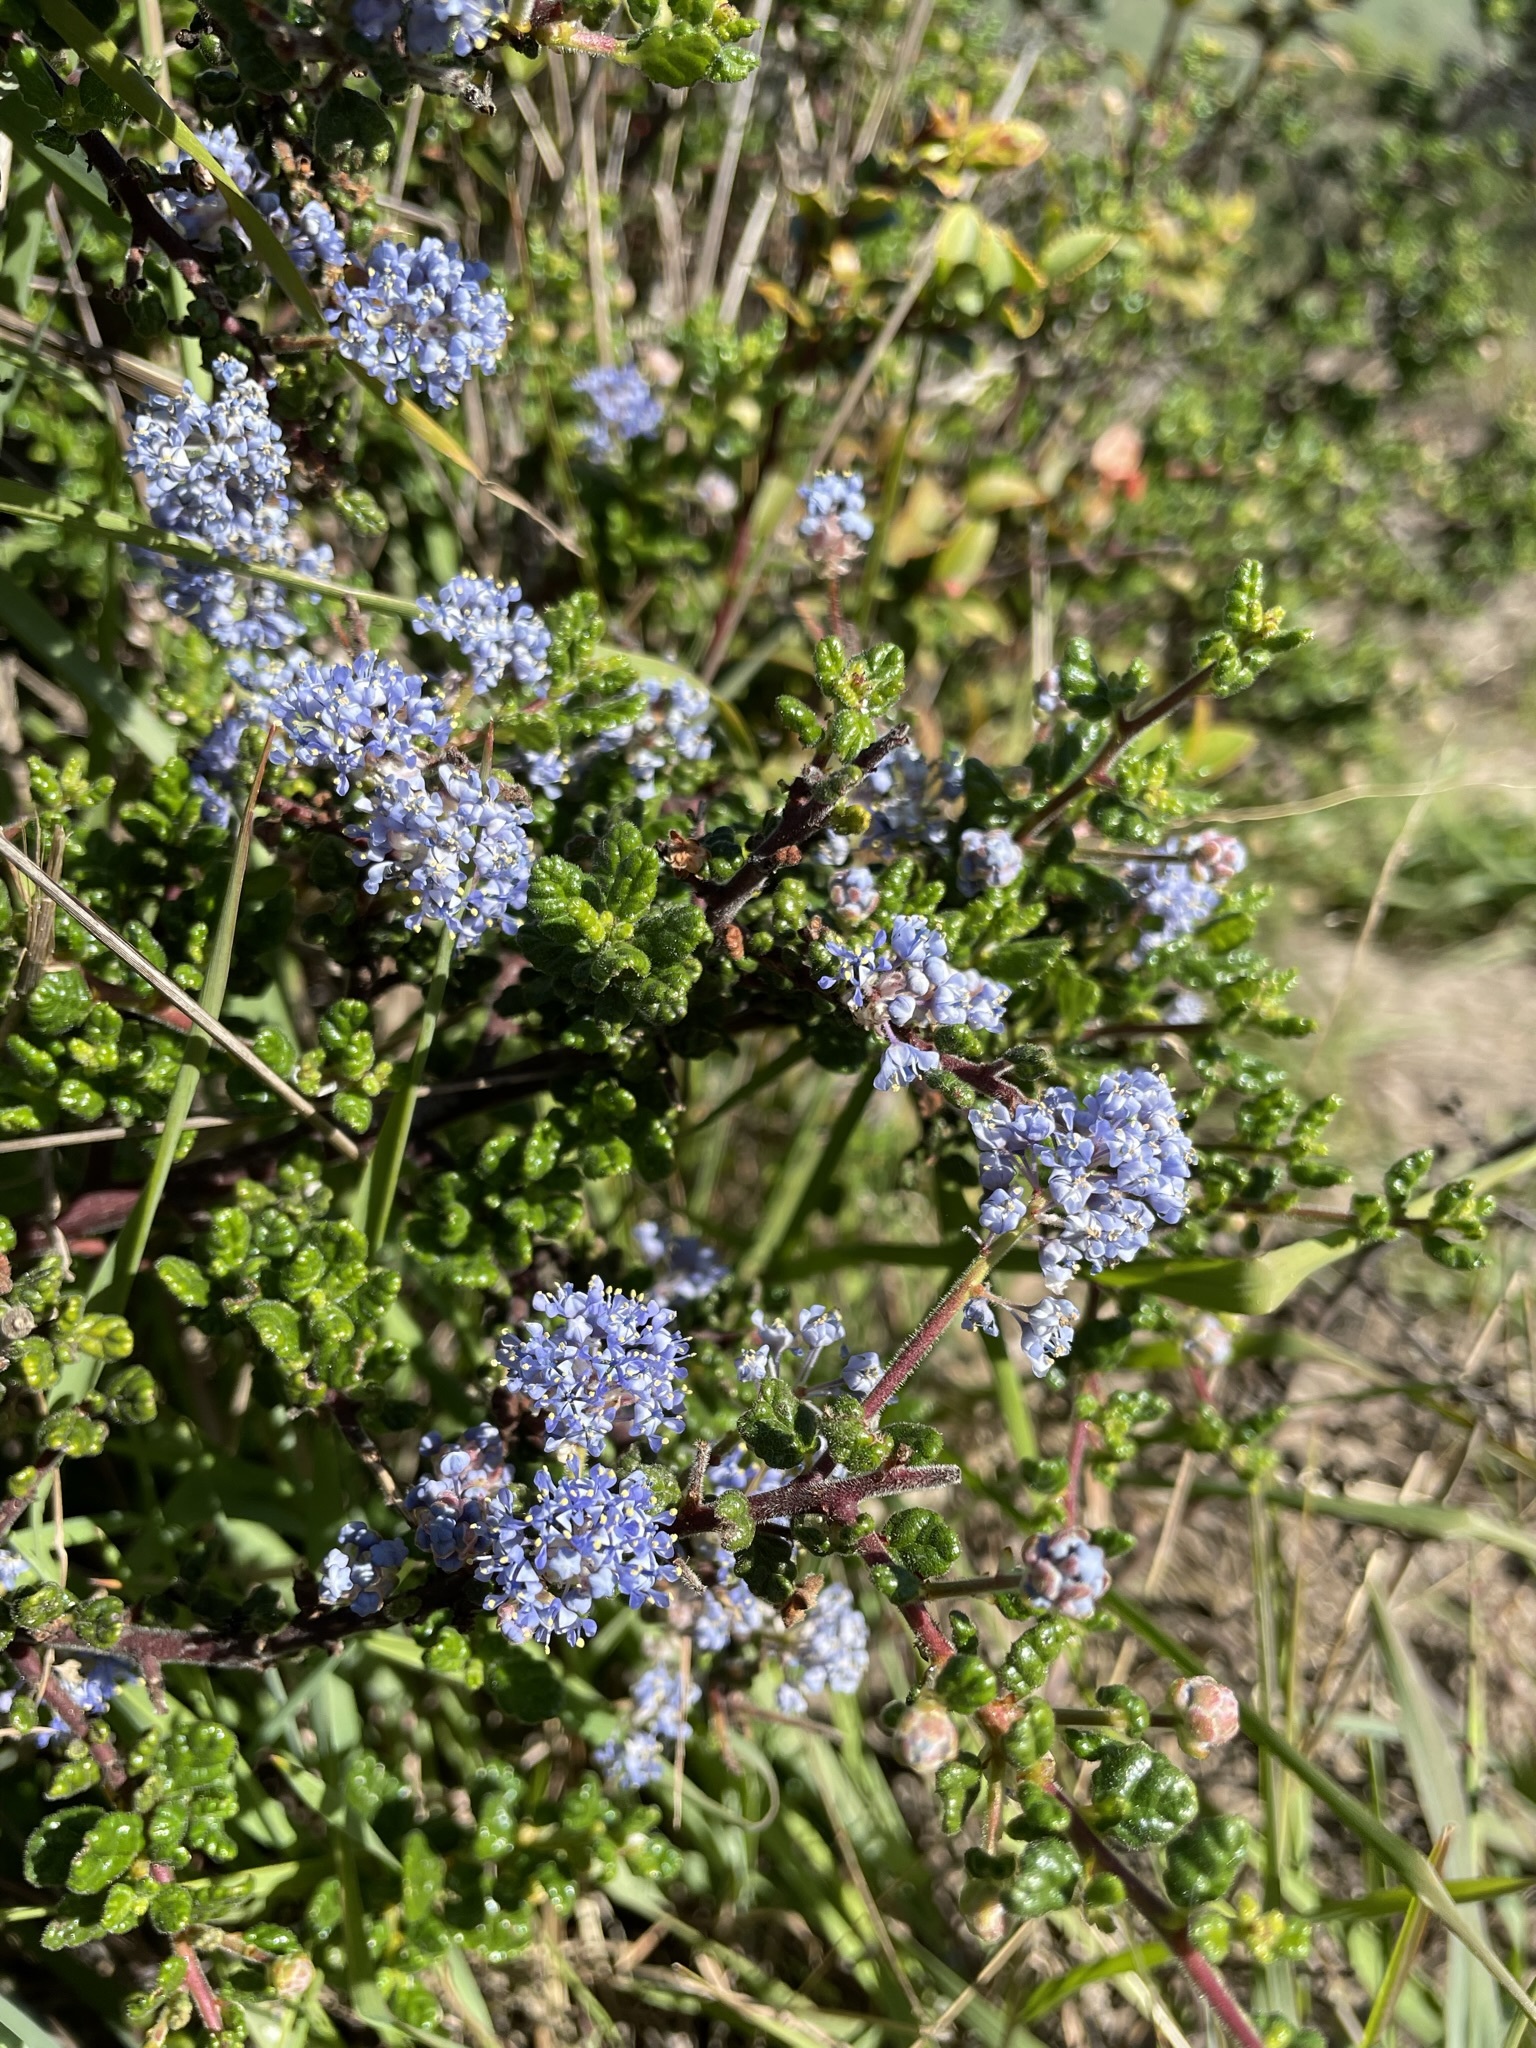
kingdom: Plantae
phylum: Tracheophyta
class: Magnoliopsida
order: Rosales
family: Rhamnaceae
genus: Ceanothus
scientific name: Ceanothus impressus
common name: Santa barbara ceanothus
